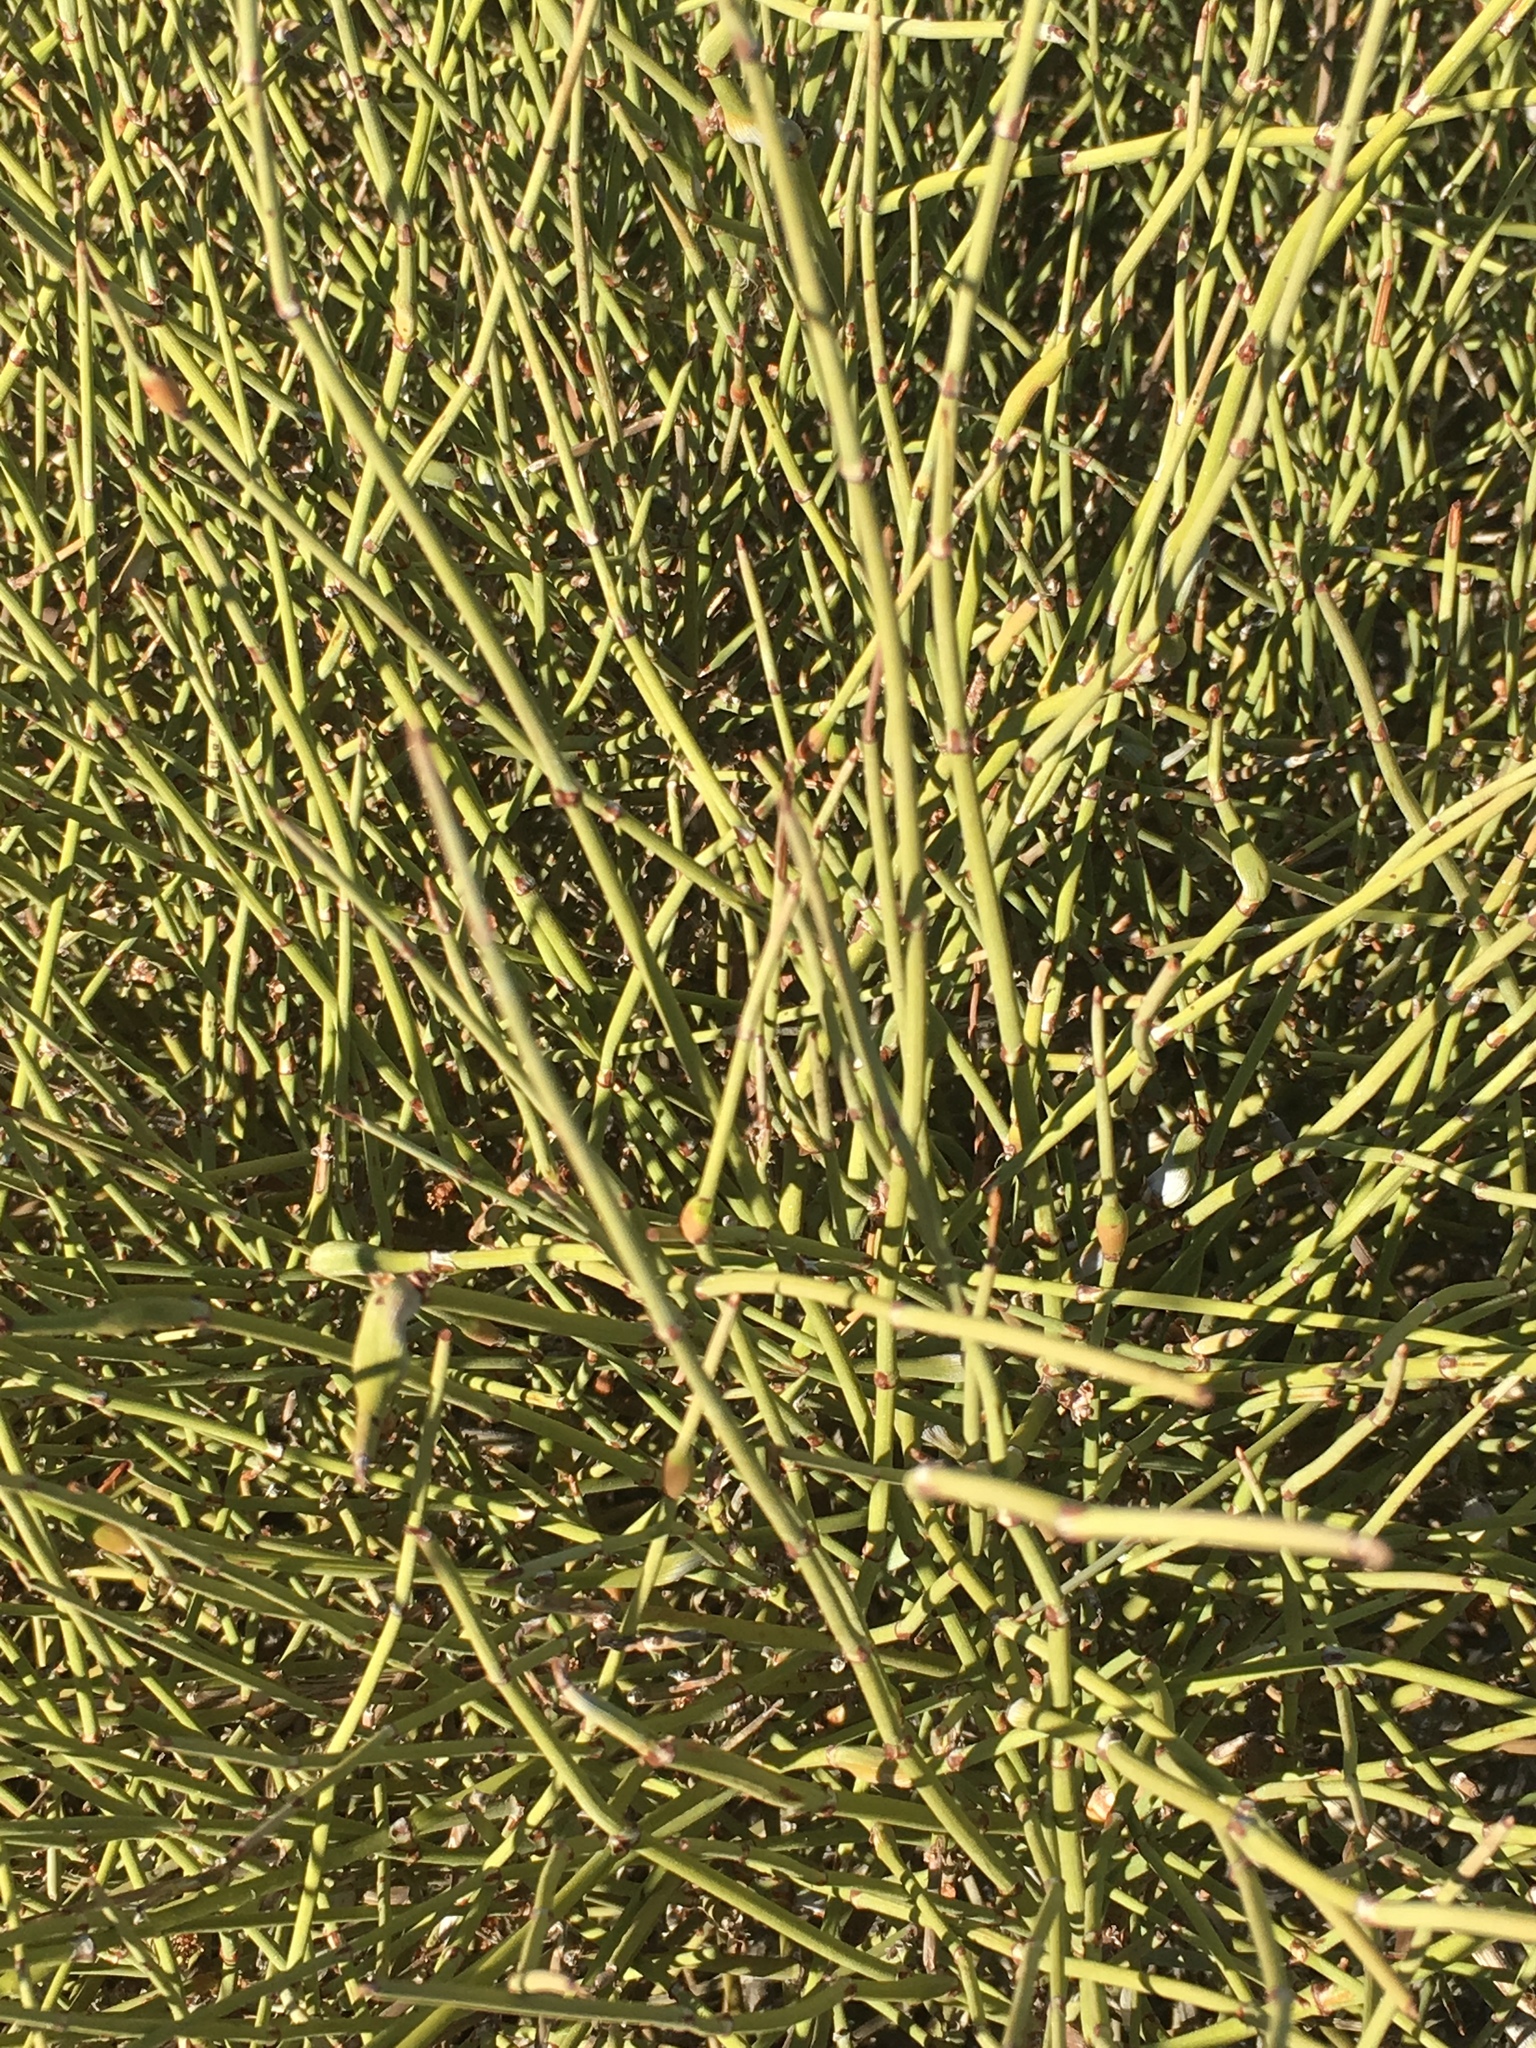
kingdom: Plantae
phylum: Tracheophyta
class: Gnetopsida
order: Ephedrales
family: Ephedraceae
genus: Ephedra
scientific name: Ephedra californica
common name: California ephedra
